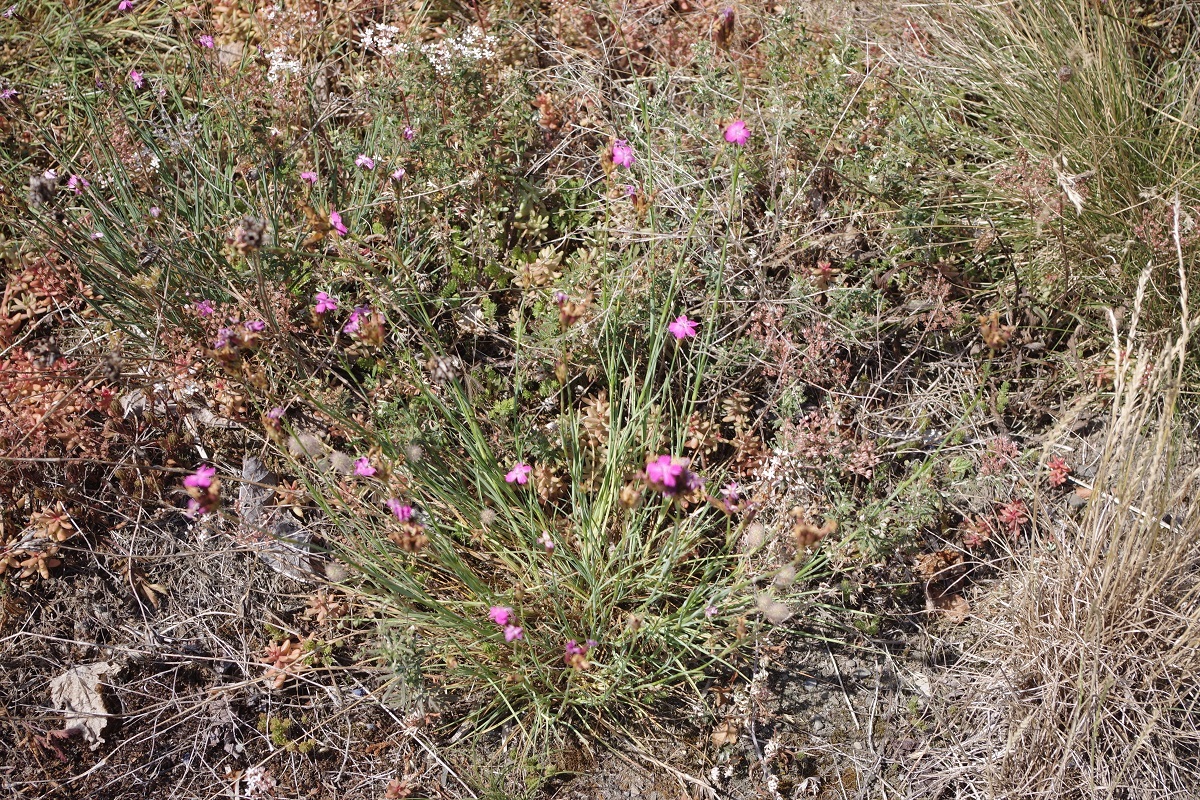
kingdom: Plantae
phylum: Tracheophyta
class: Magnoliopsida
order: Caryophyllales
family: Caryophyllaceae
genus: Dianthus
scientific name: Dianthus carthusianorum
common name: Carthusian pink
